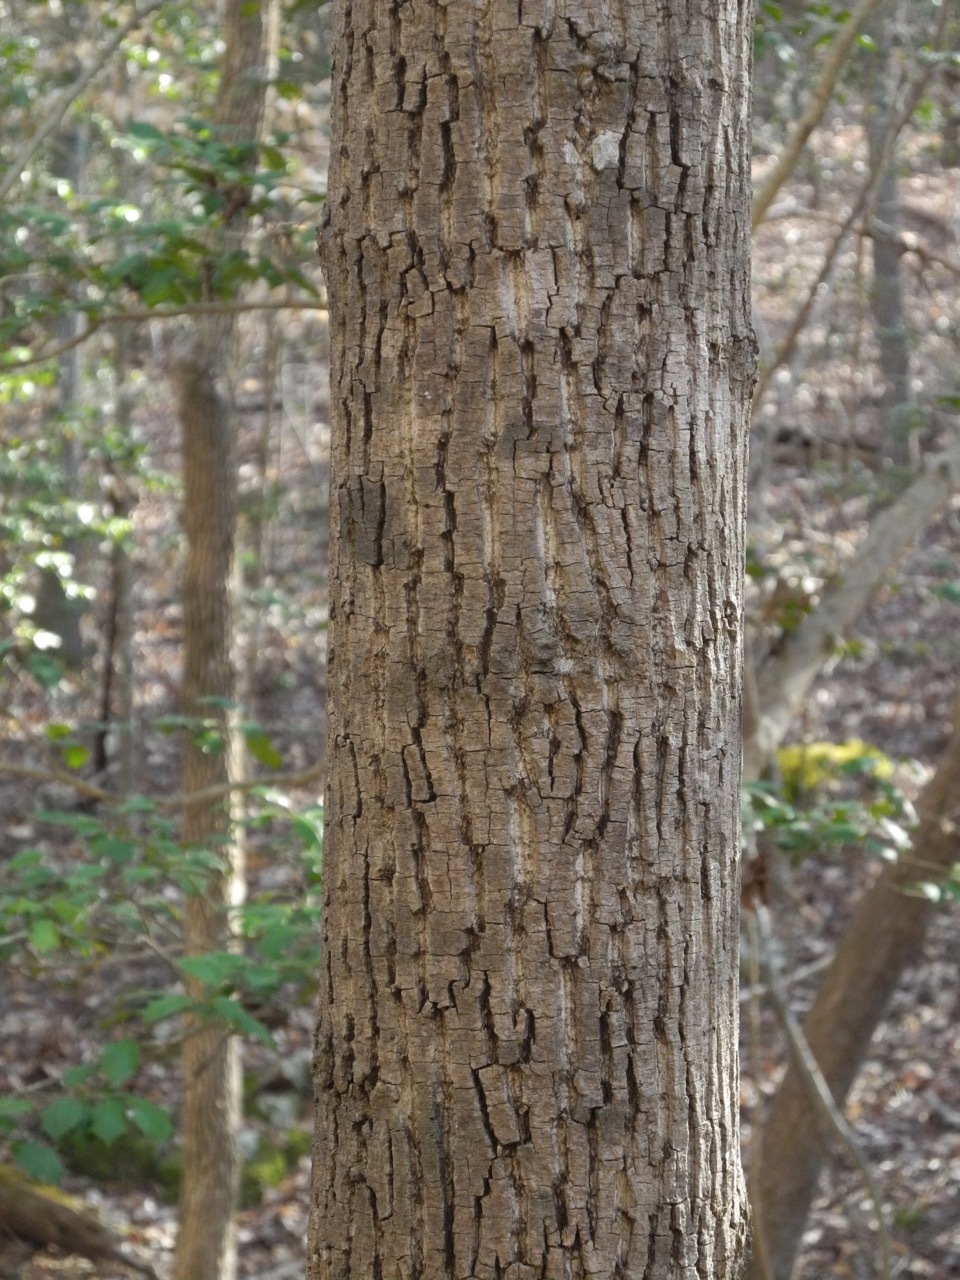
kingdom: Plantae
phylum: Tracheophyta
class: Magnoliopsida
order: Fagales
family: Juglandaceae
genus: Carya
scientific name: Carya alba
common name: Mockernut hickory
